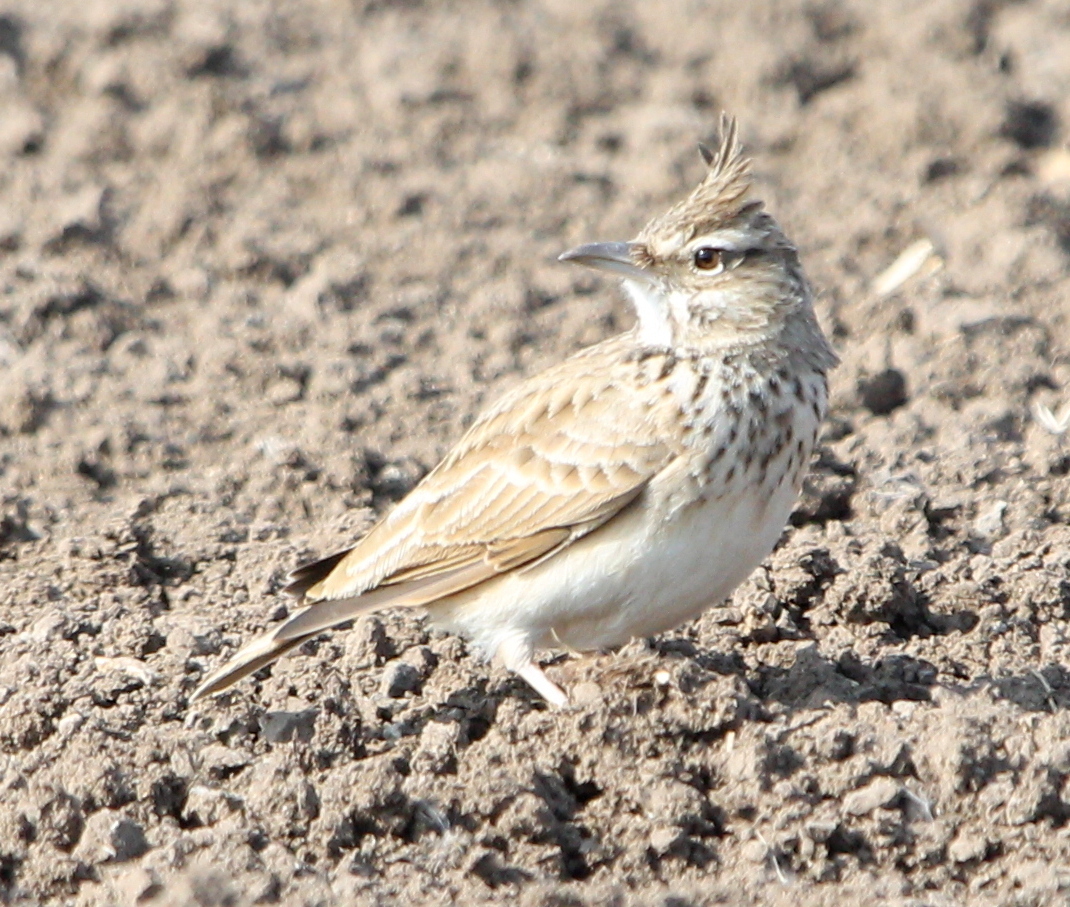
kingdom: Animalia
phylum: Chordata
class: Aves
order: Passeriformes
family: Alaudidae
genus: Galerida
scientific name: Galerida cristata
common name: Crested lark
